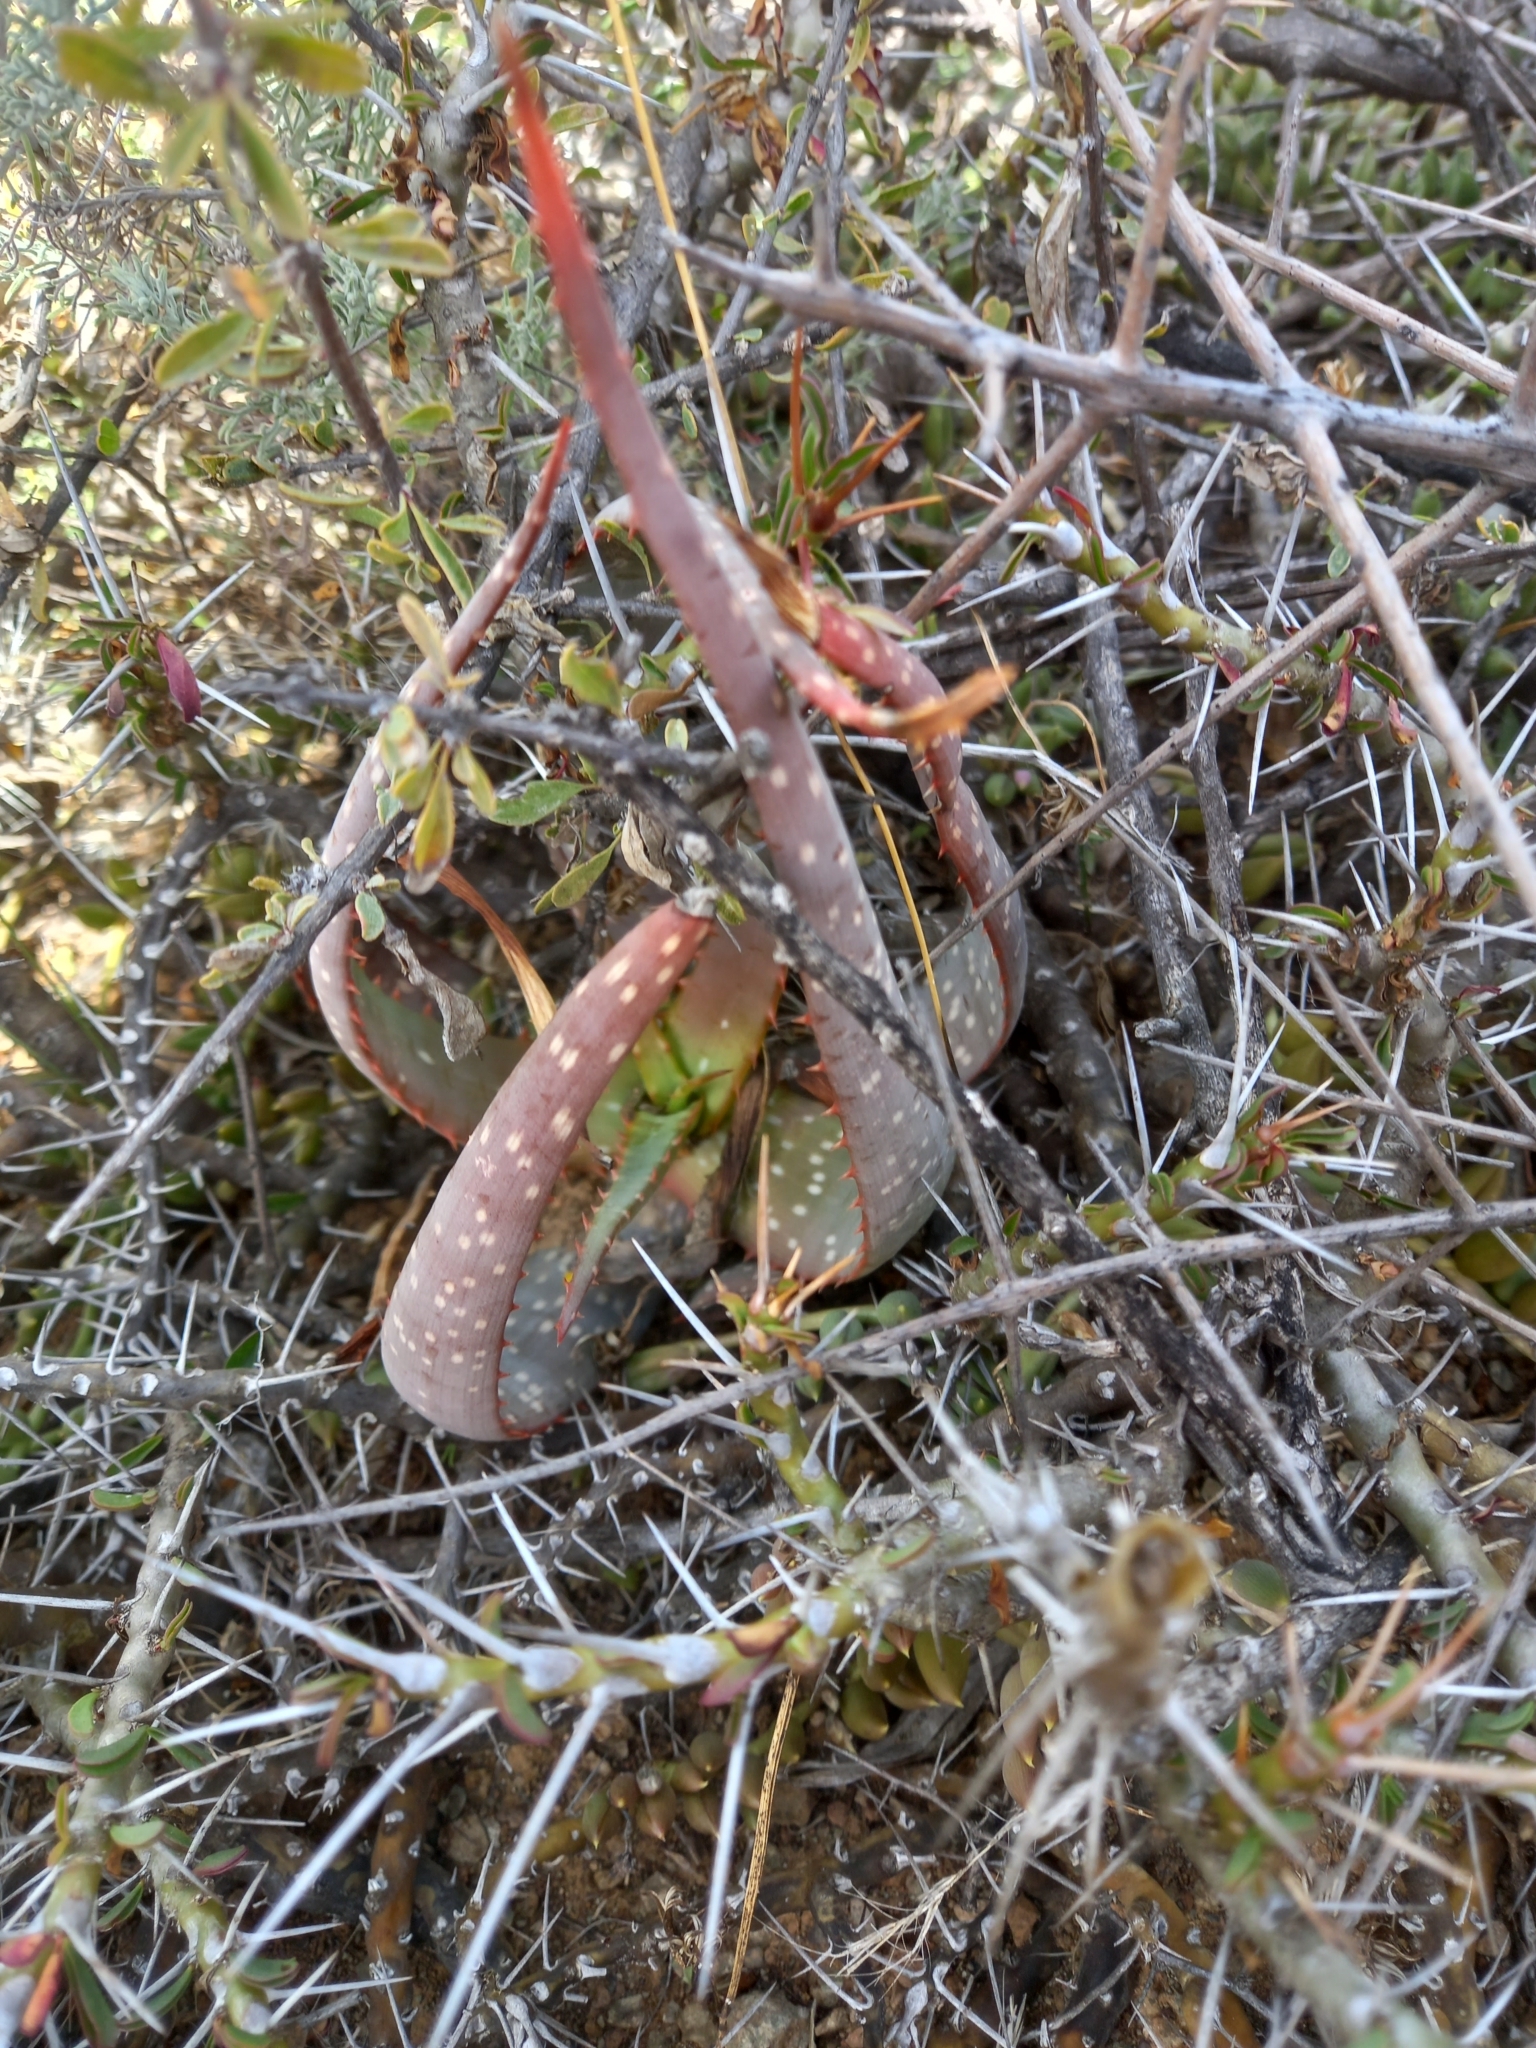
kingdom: Plantae
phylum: Tracheophyta
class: Liliopsida
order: Asparagales
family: Asphodelaceae
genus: Aloe
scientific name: Aloe microstigma
